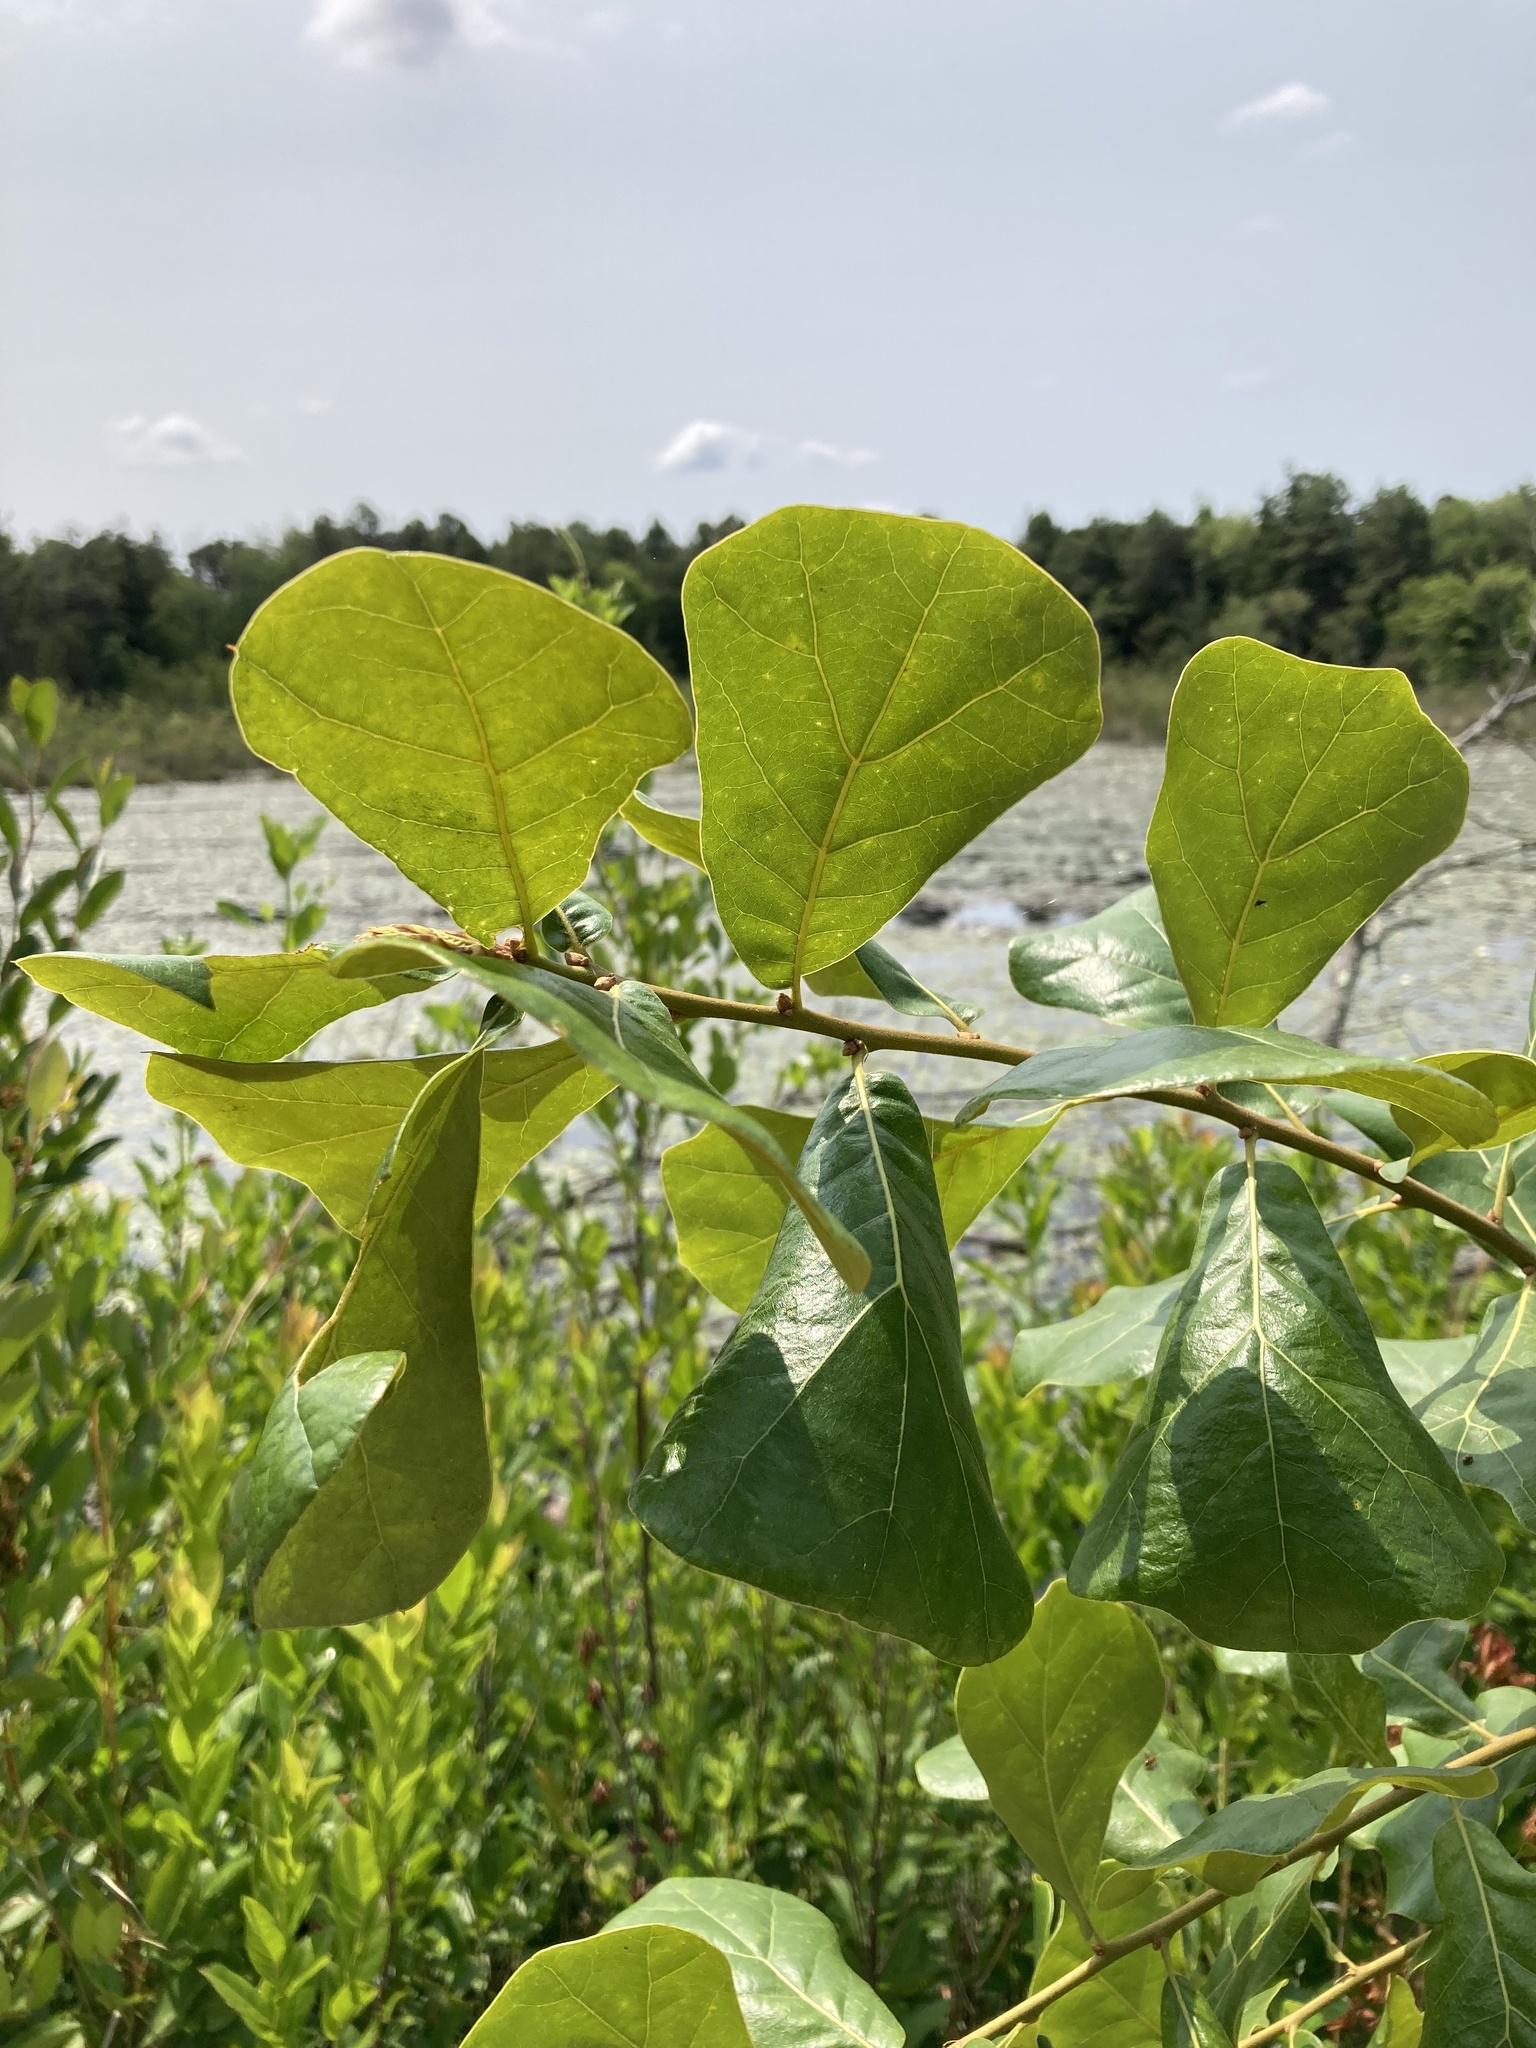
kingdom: Plantae
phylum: Tracheophyta
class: Magnoliopsida
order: Fagales
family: Fagaceae
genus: Quercus
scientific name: Quercus marilandica
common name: Blackjack oak
